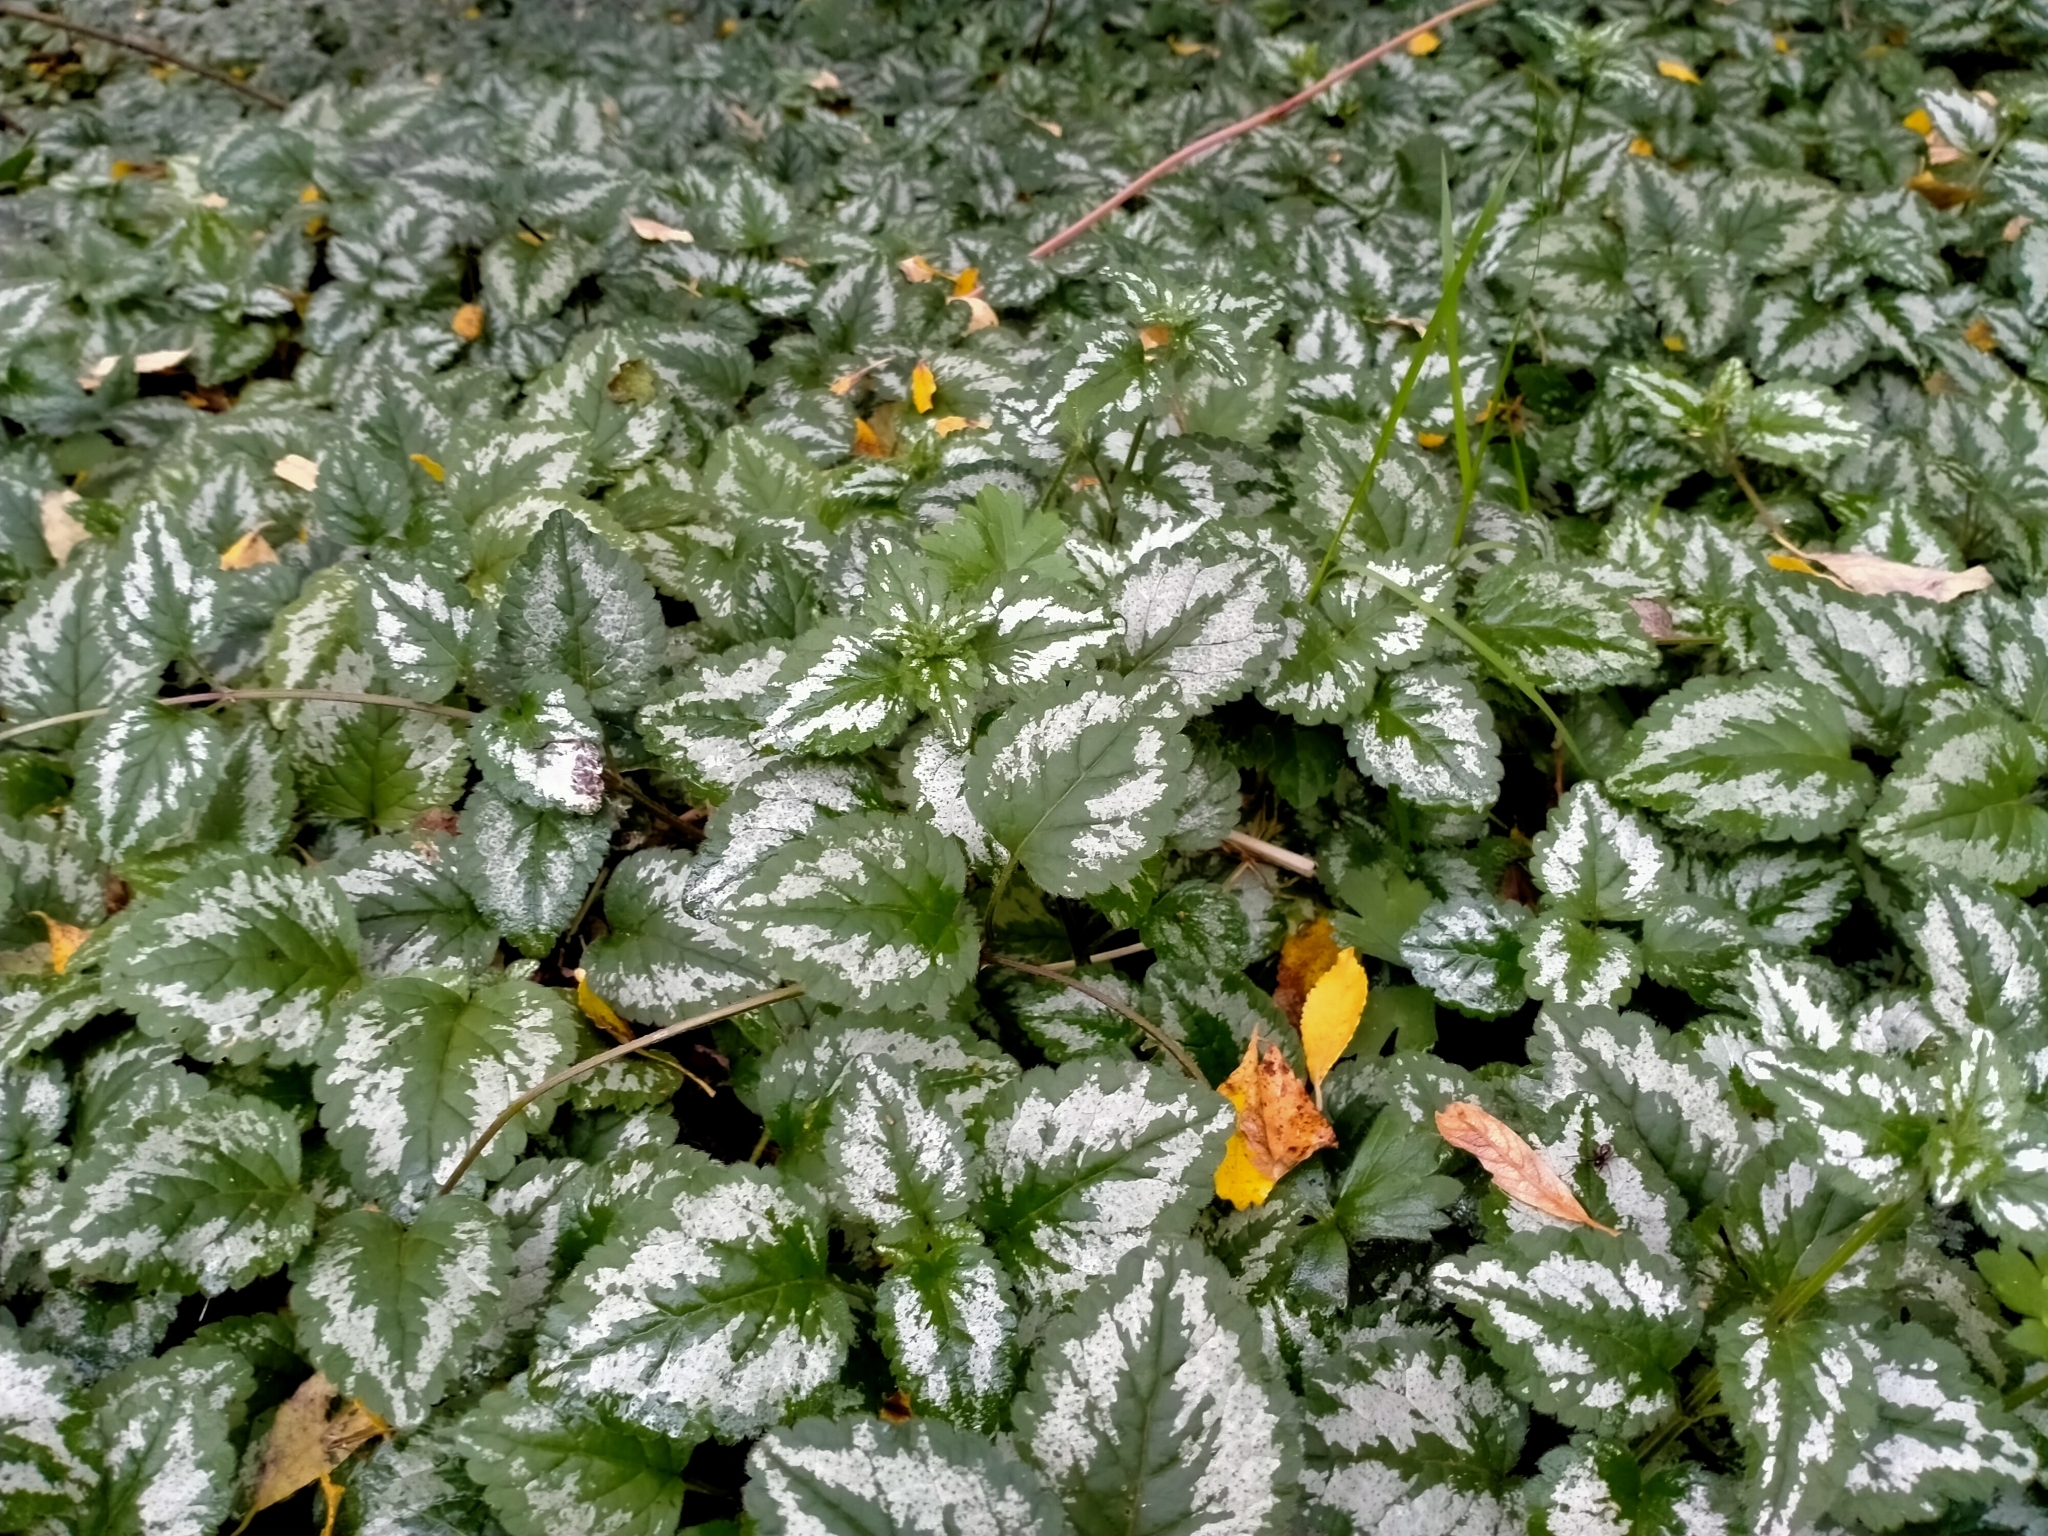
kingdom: Plantae
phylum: Tracheophyta
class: Magnoliopsida
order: Lamiales
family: Lamiaceae
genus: Lamium
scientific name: Lamium galeobdolon
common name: Yellow archangel
